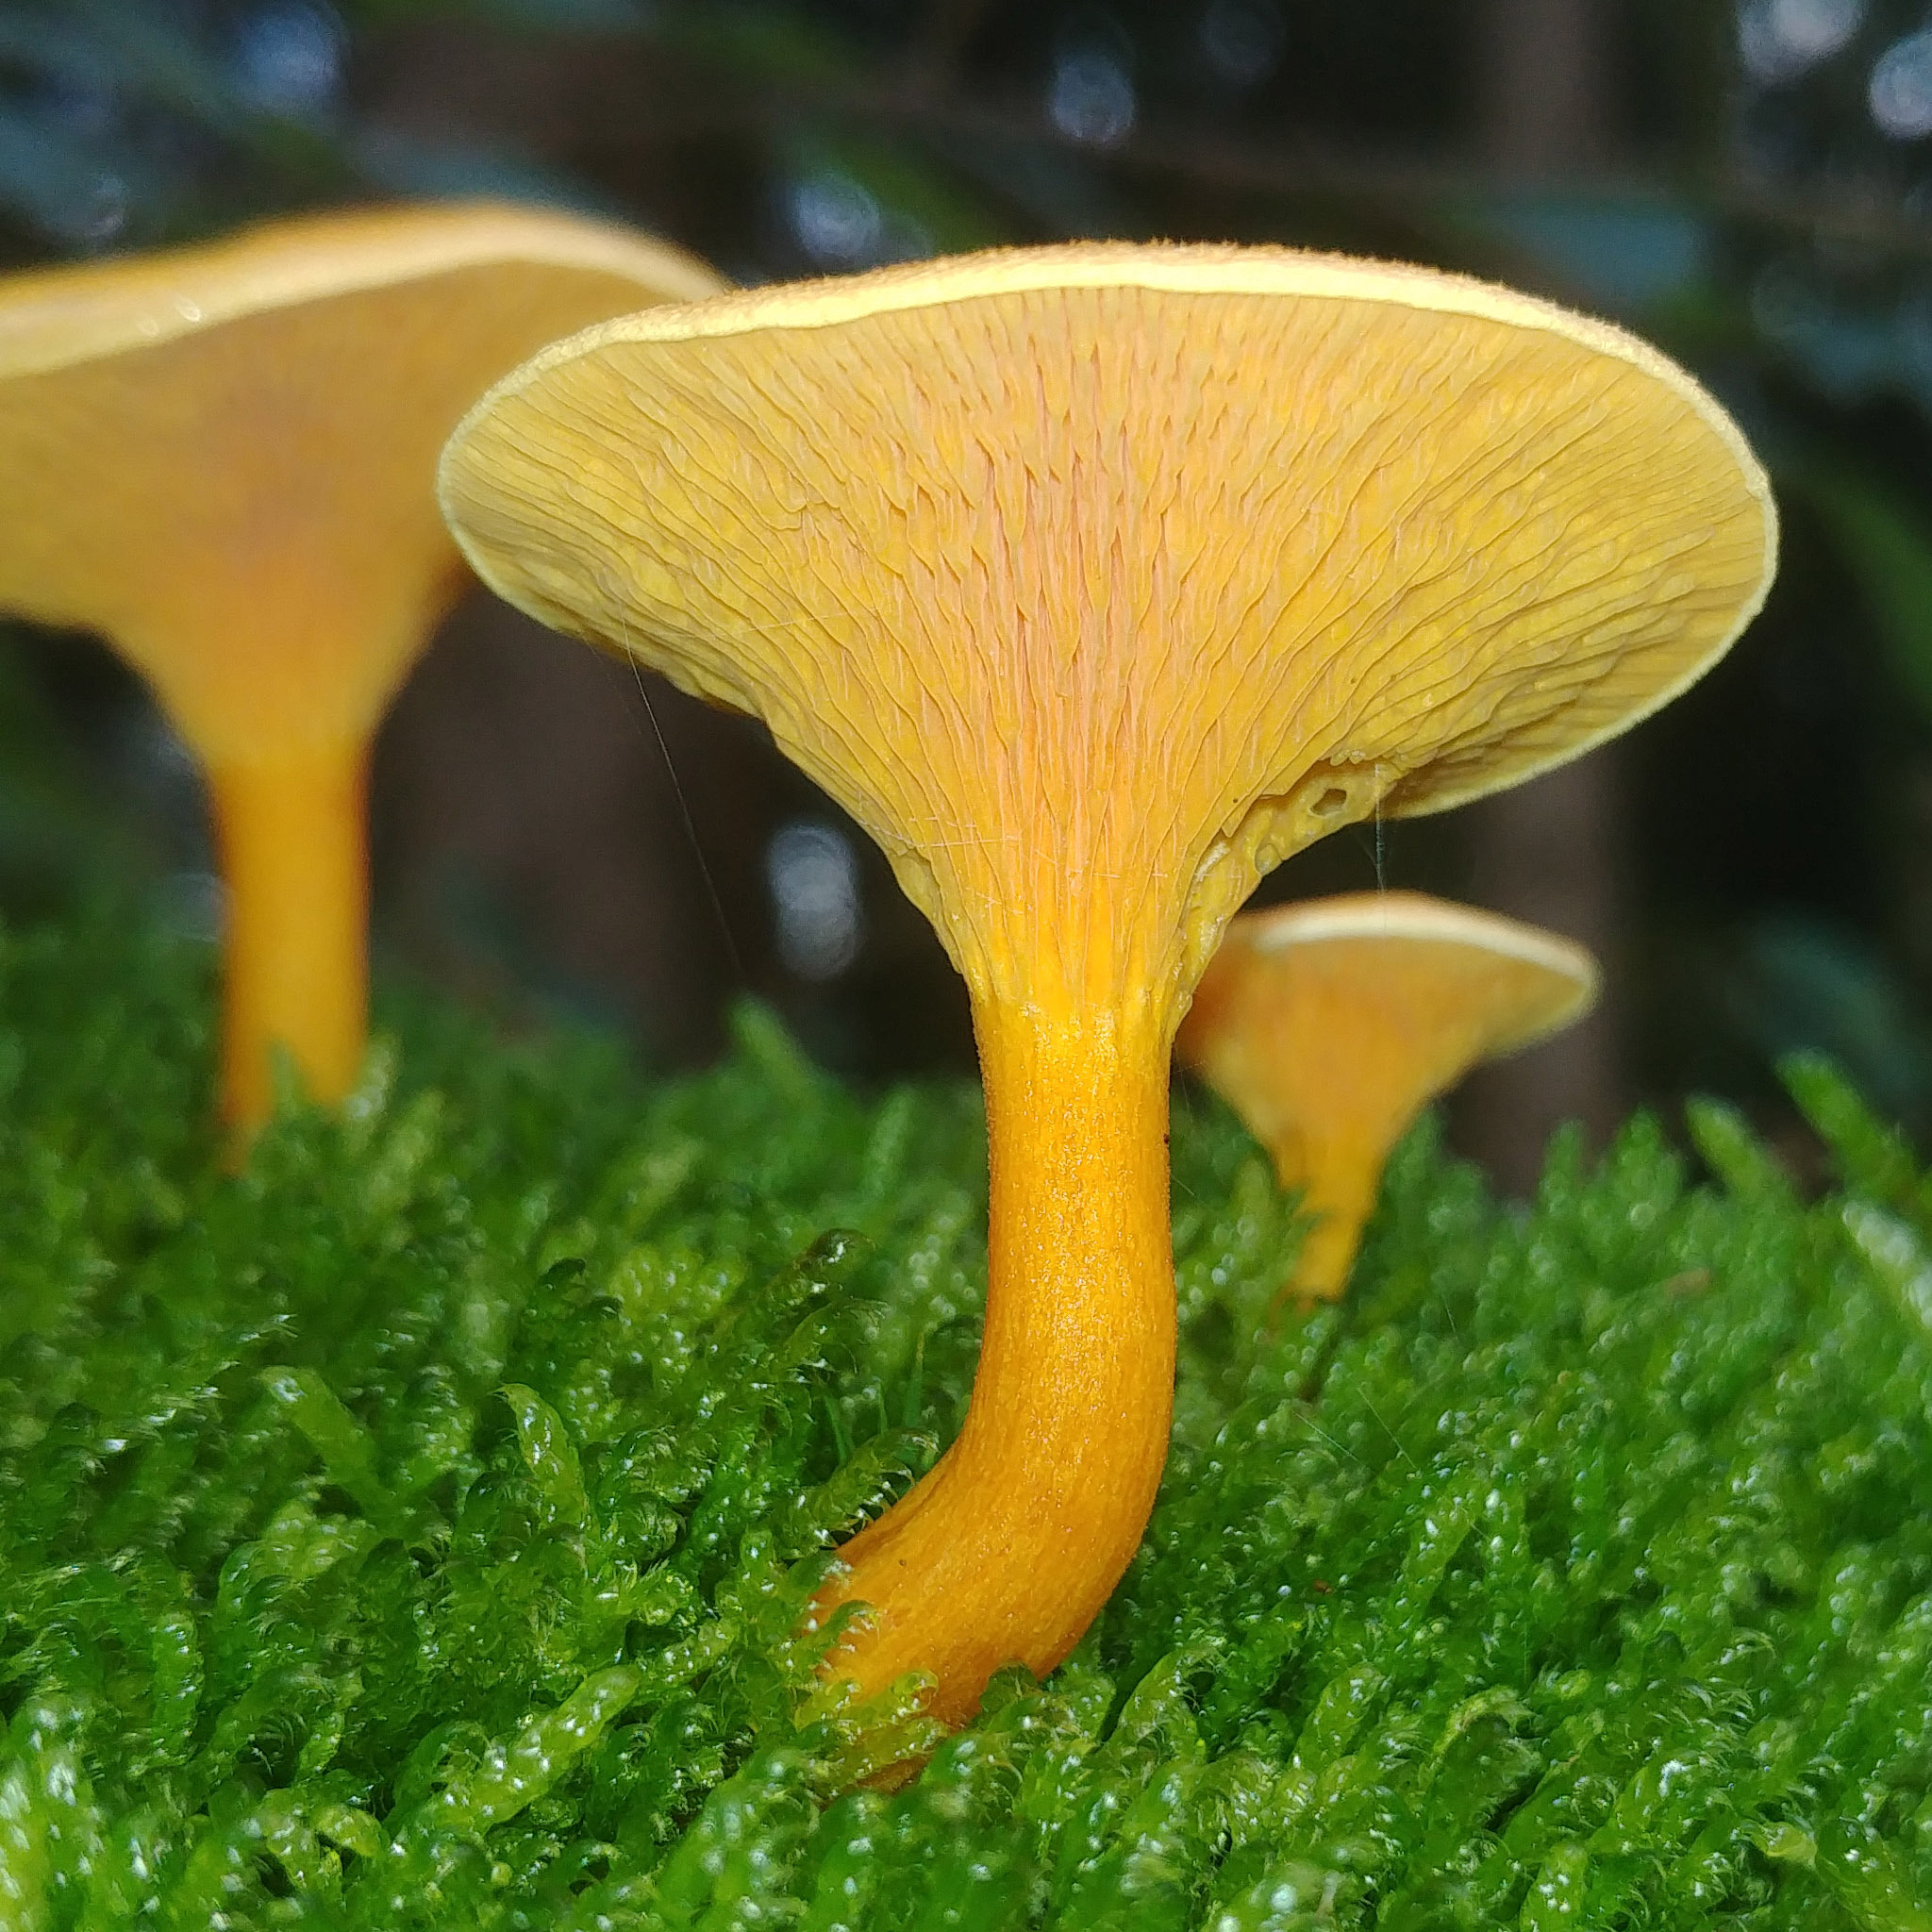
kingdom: Fungi
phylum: Basidiomycota
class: Agaricomycetes
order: Boletales
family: Hygrophoropsidaceae
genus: Hygrophoropsis
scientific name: Hygrophoropsis aurantiaca
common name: False chanterelle
